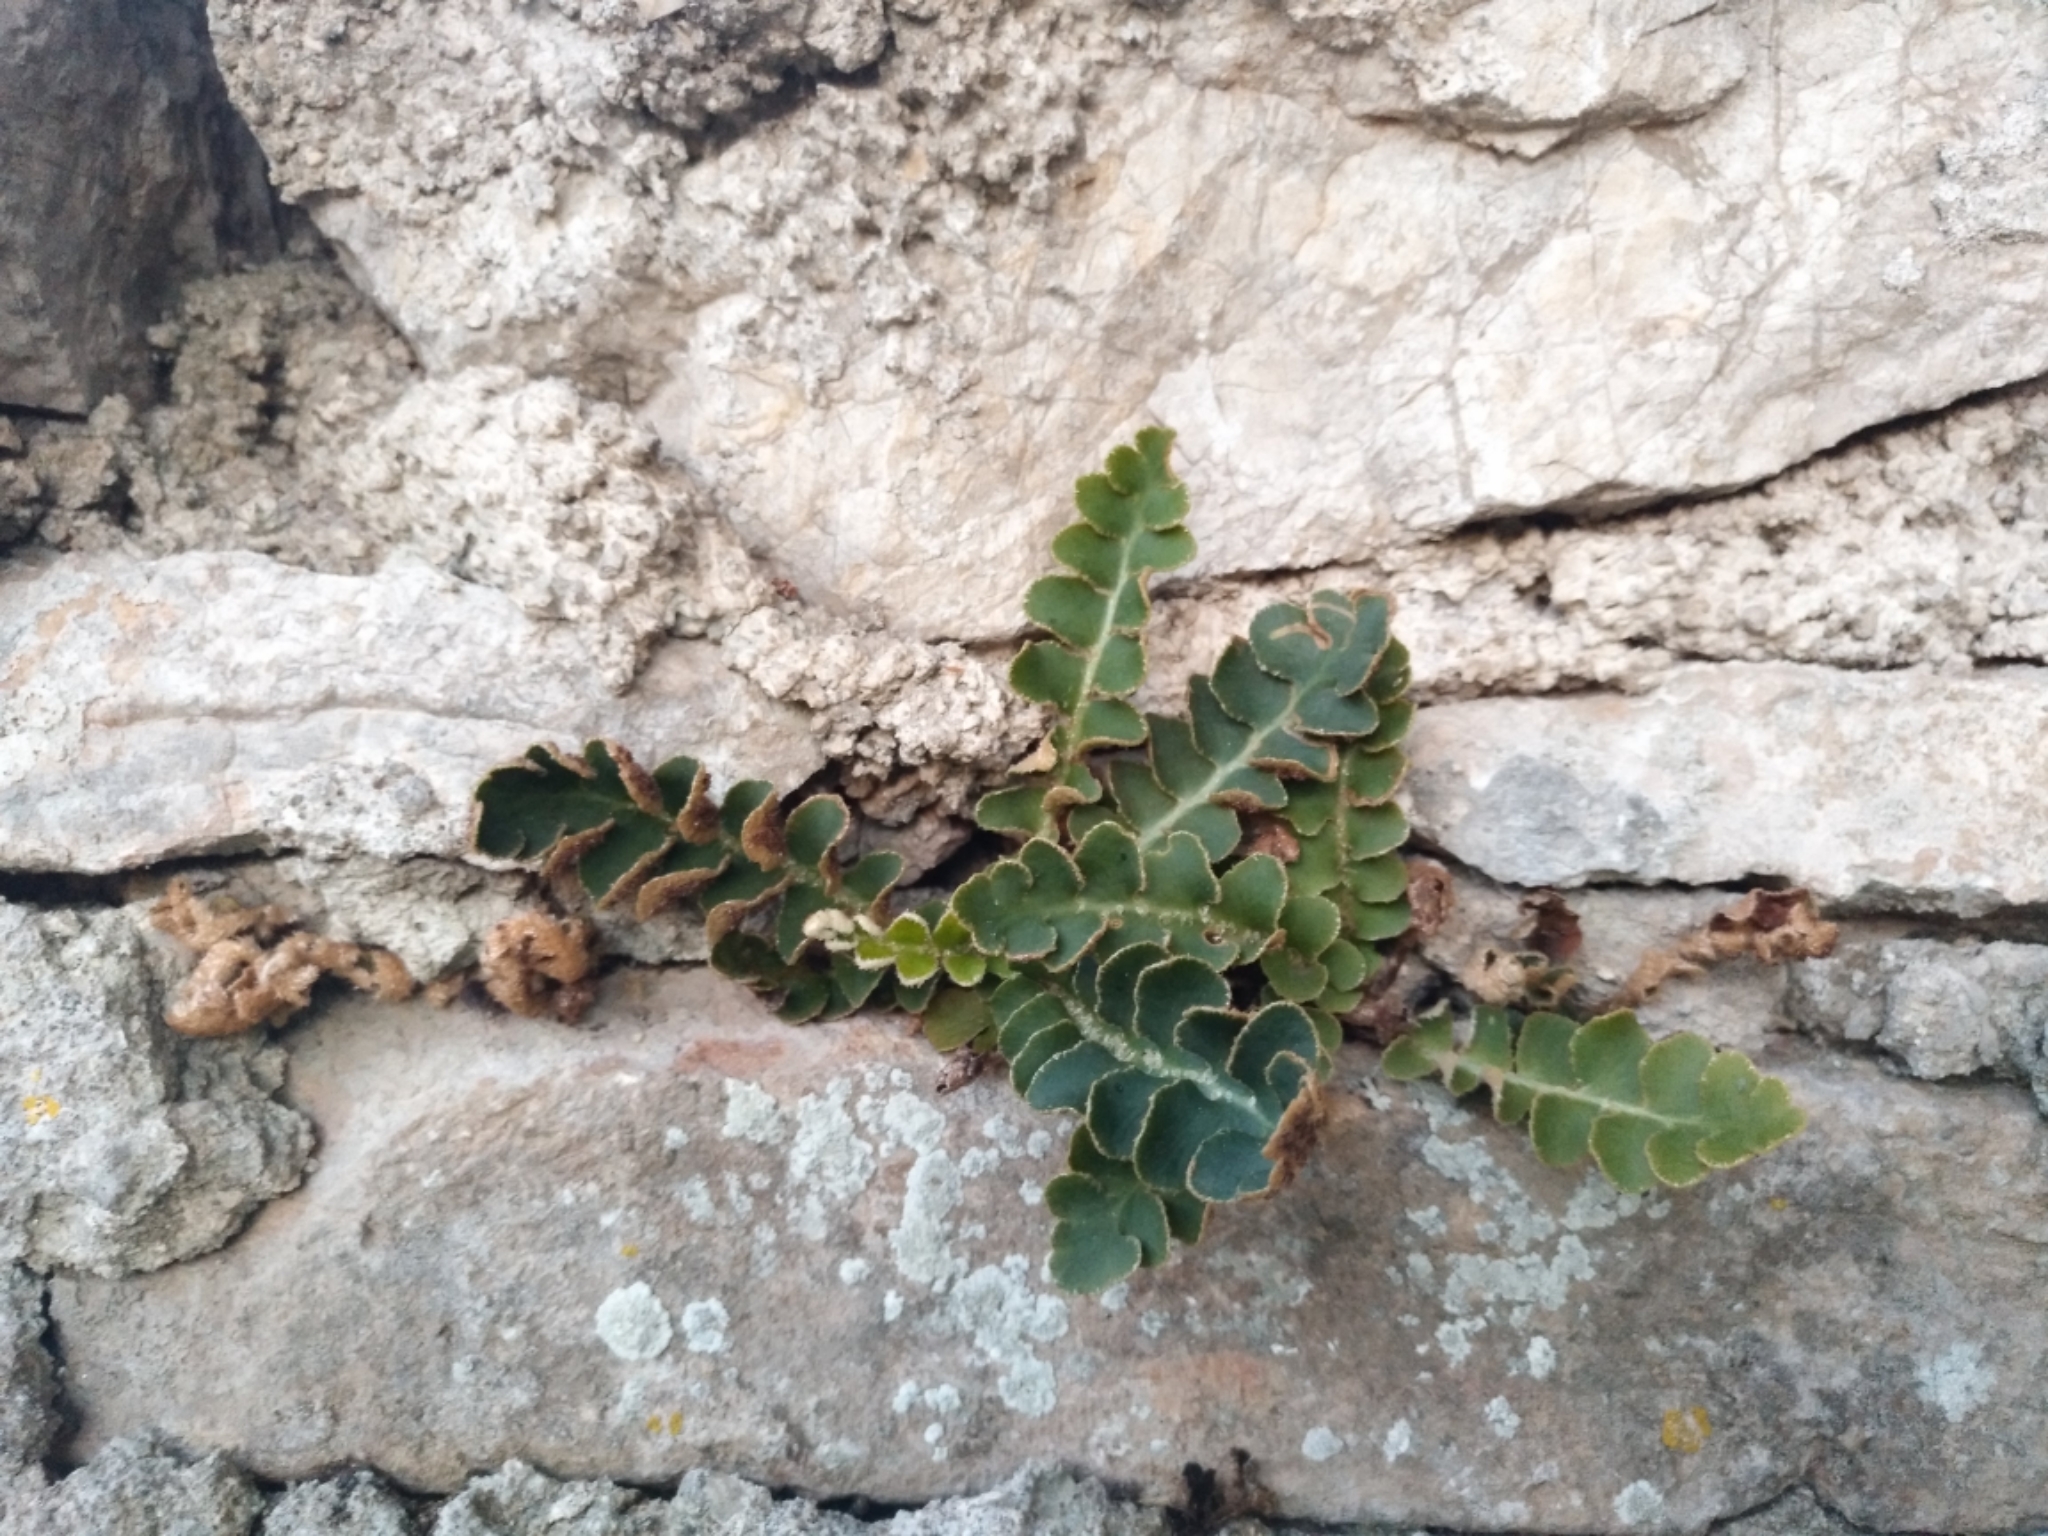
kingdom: Plantae
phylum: Tracheophyta
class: Polypodiopsida
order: Polypodiales
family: Aspleniaceae
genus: Asplenium
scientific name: Asplenium ceterach
